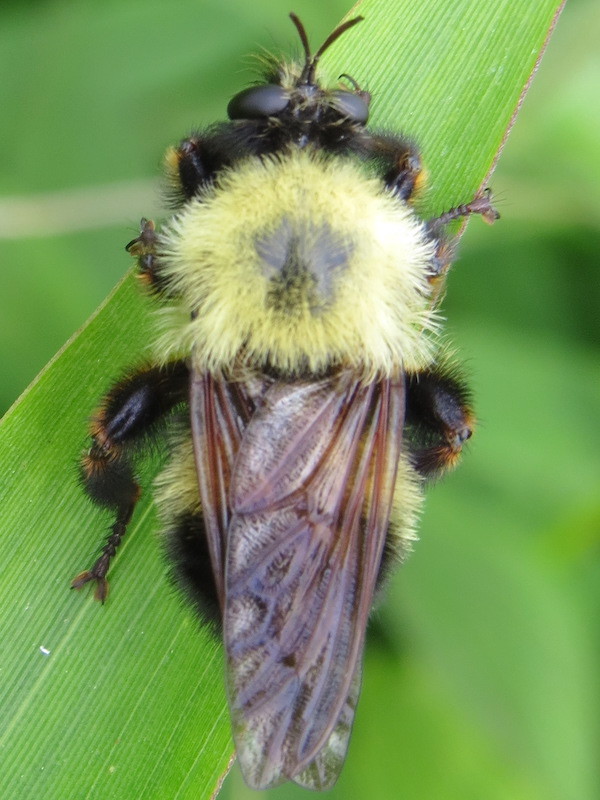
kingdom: Animalia
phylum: Arthropoda
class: Insecta
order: Diptera
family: Asilidae
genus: Laphria
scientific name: Laphria thoracica
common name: Bumble bee mimic robber fly
